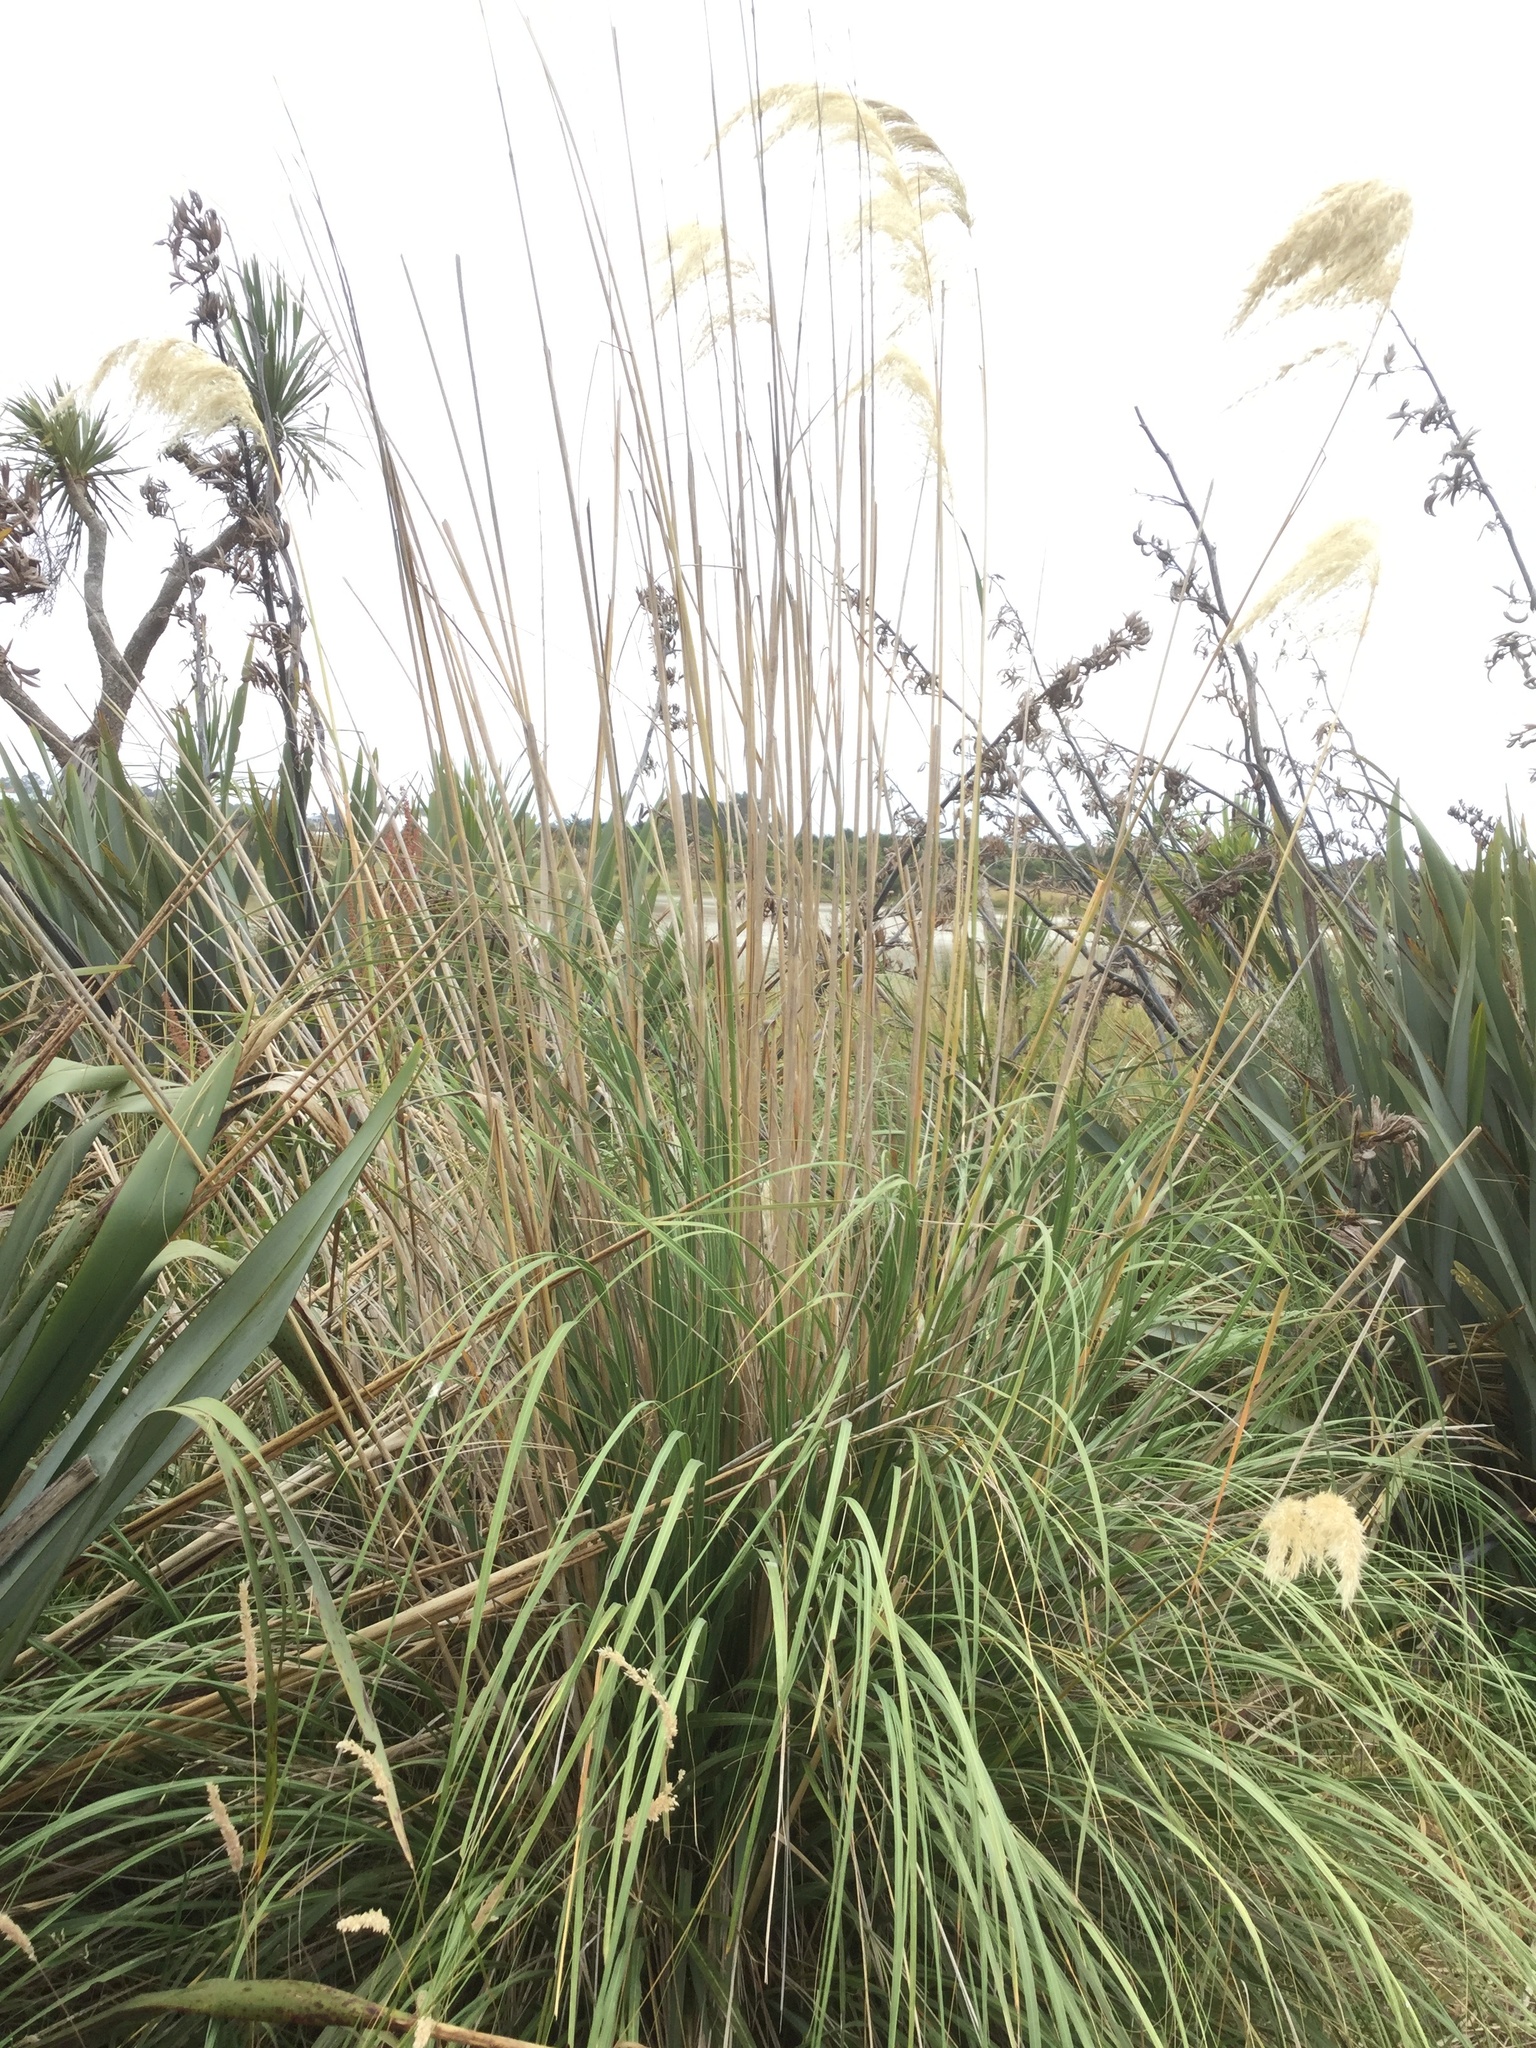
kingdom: Plantae
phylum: Tracheophyta
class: Liliopsida
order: Poales
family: Poaceae
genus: Austroderia
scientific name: Austroderia richardii
